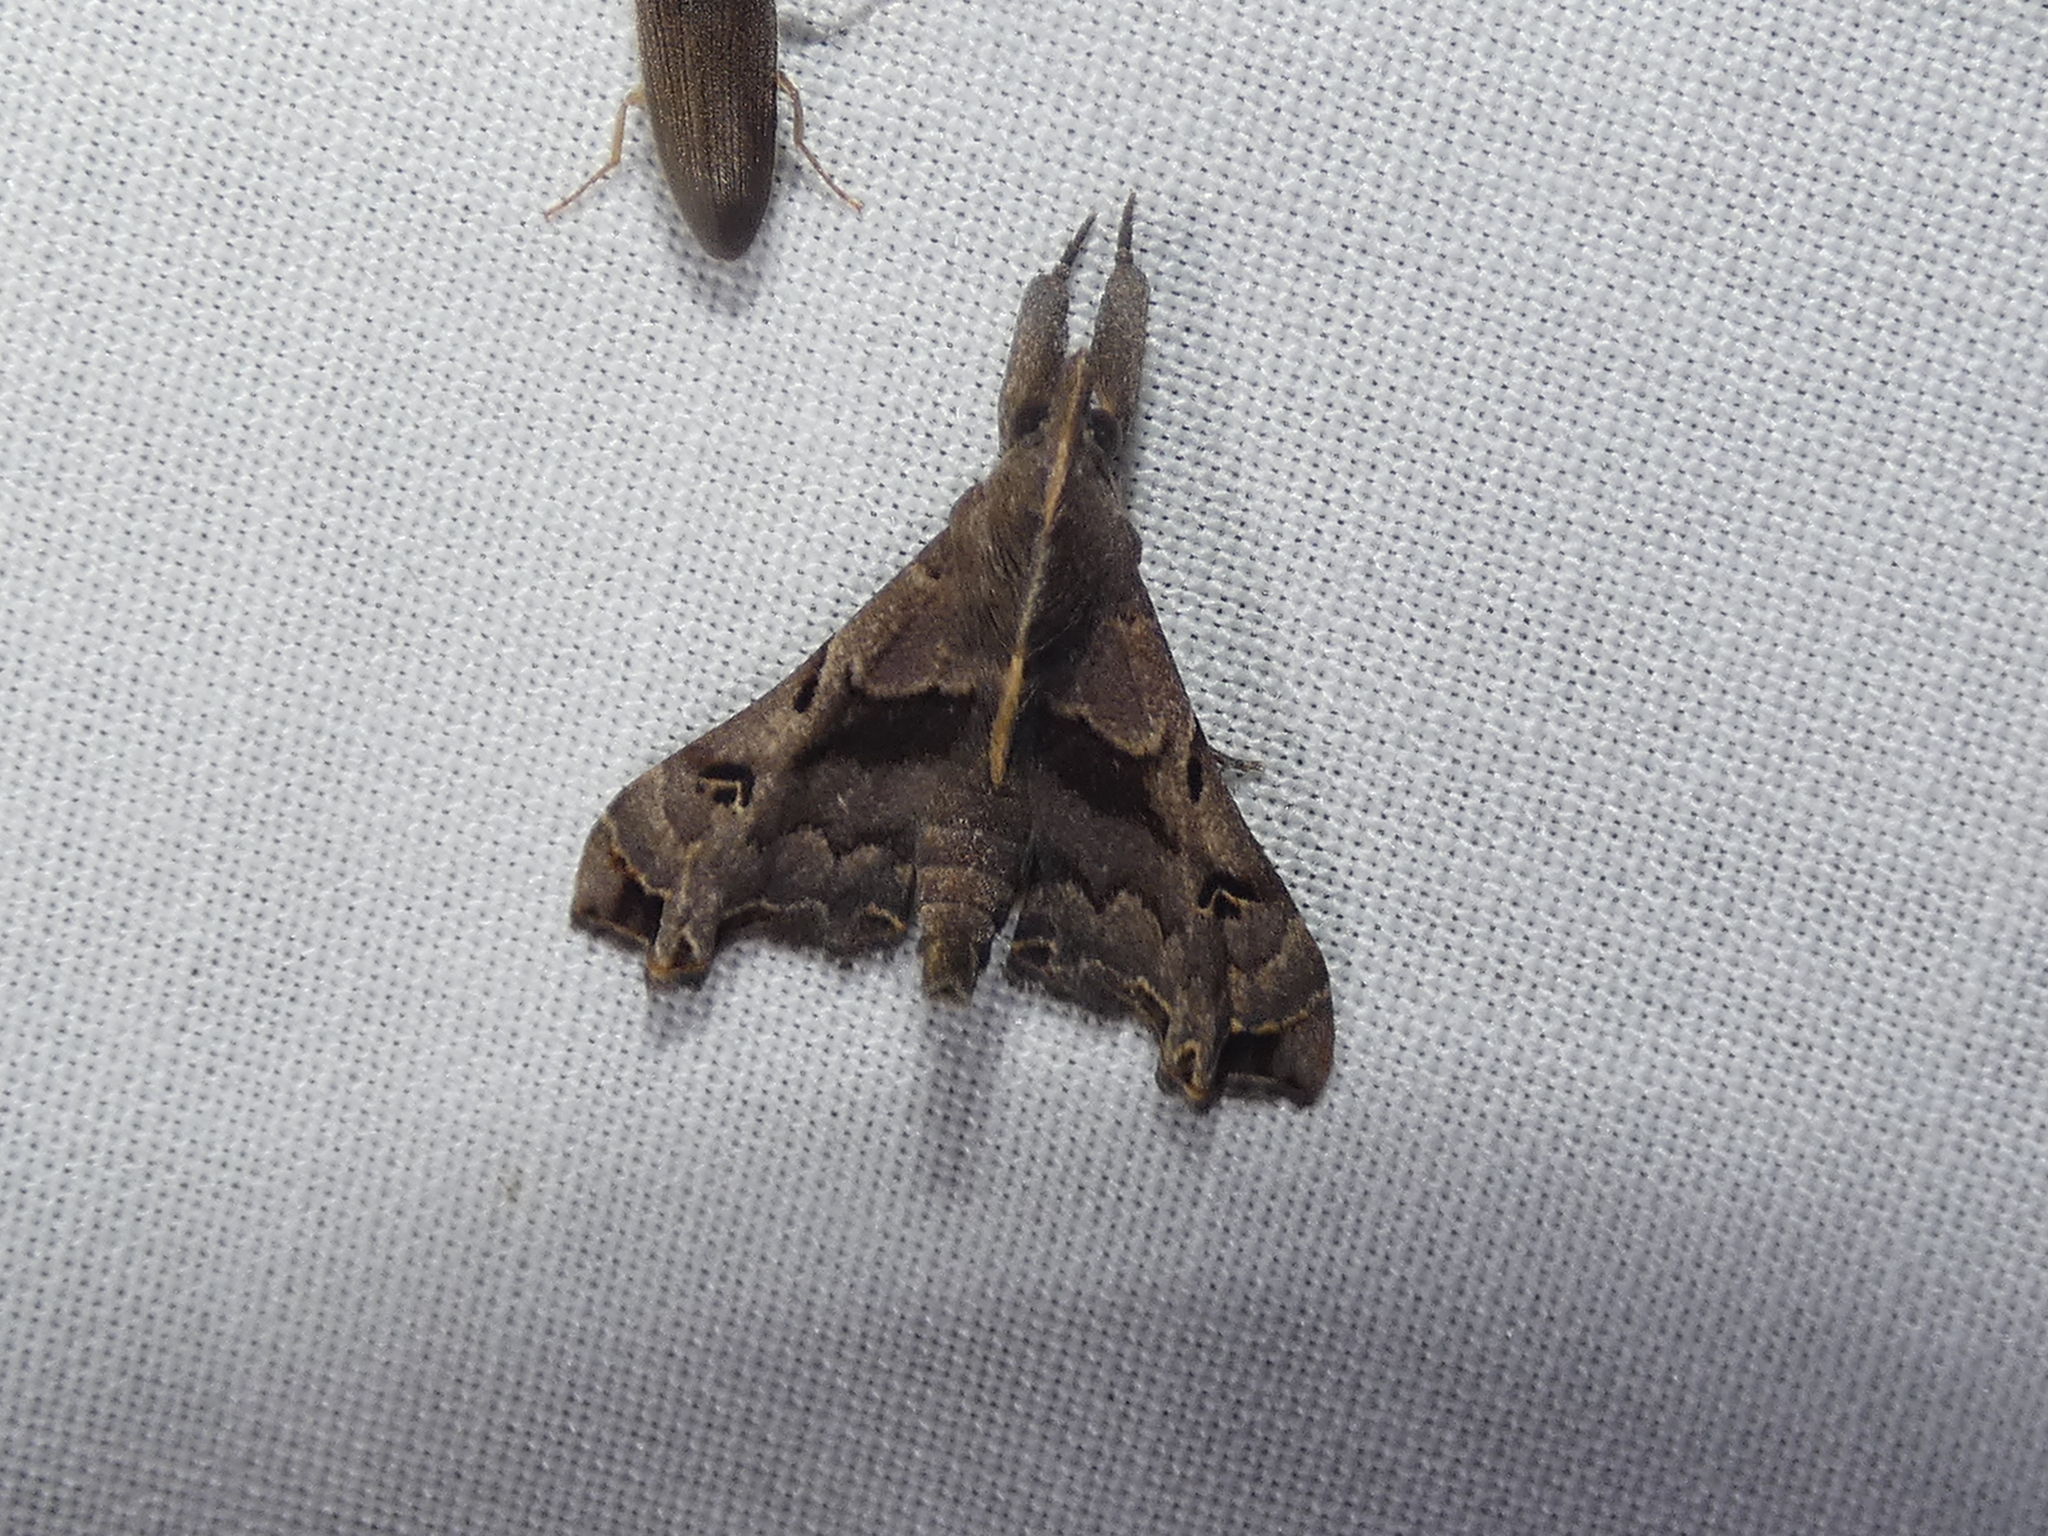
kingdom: Animalia
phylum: Arthropoda
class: Insecta
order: Lepidoptera
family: Erebidae
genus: Palthis
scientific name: Palthis asopialis
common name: Faint-spotted palthis moth
